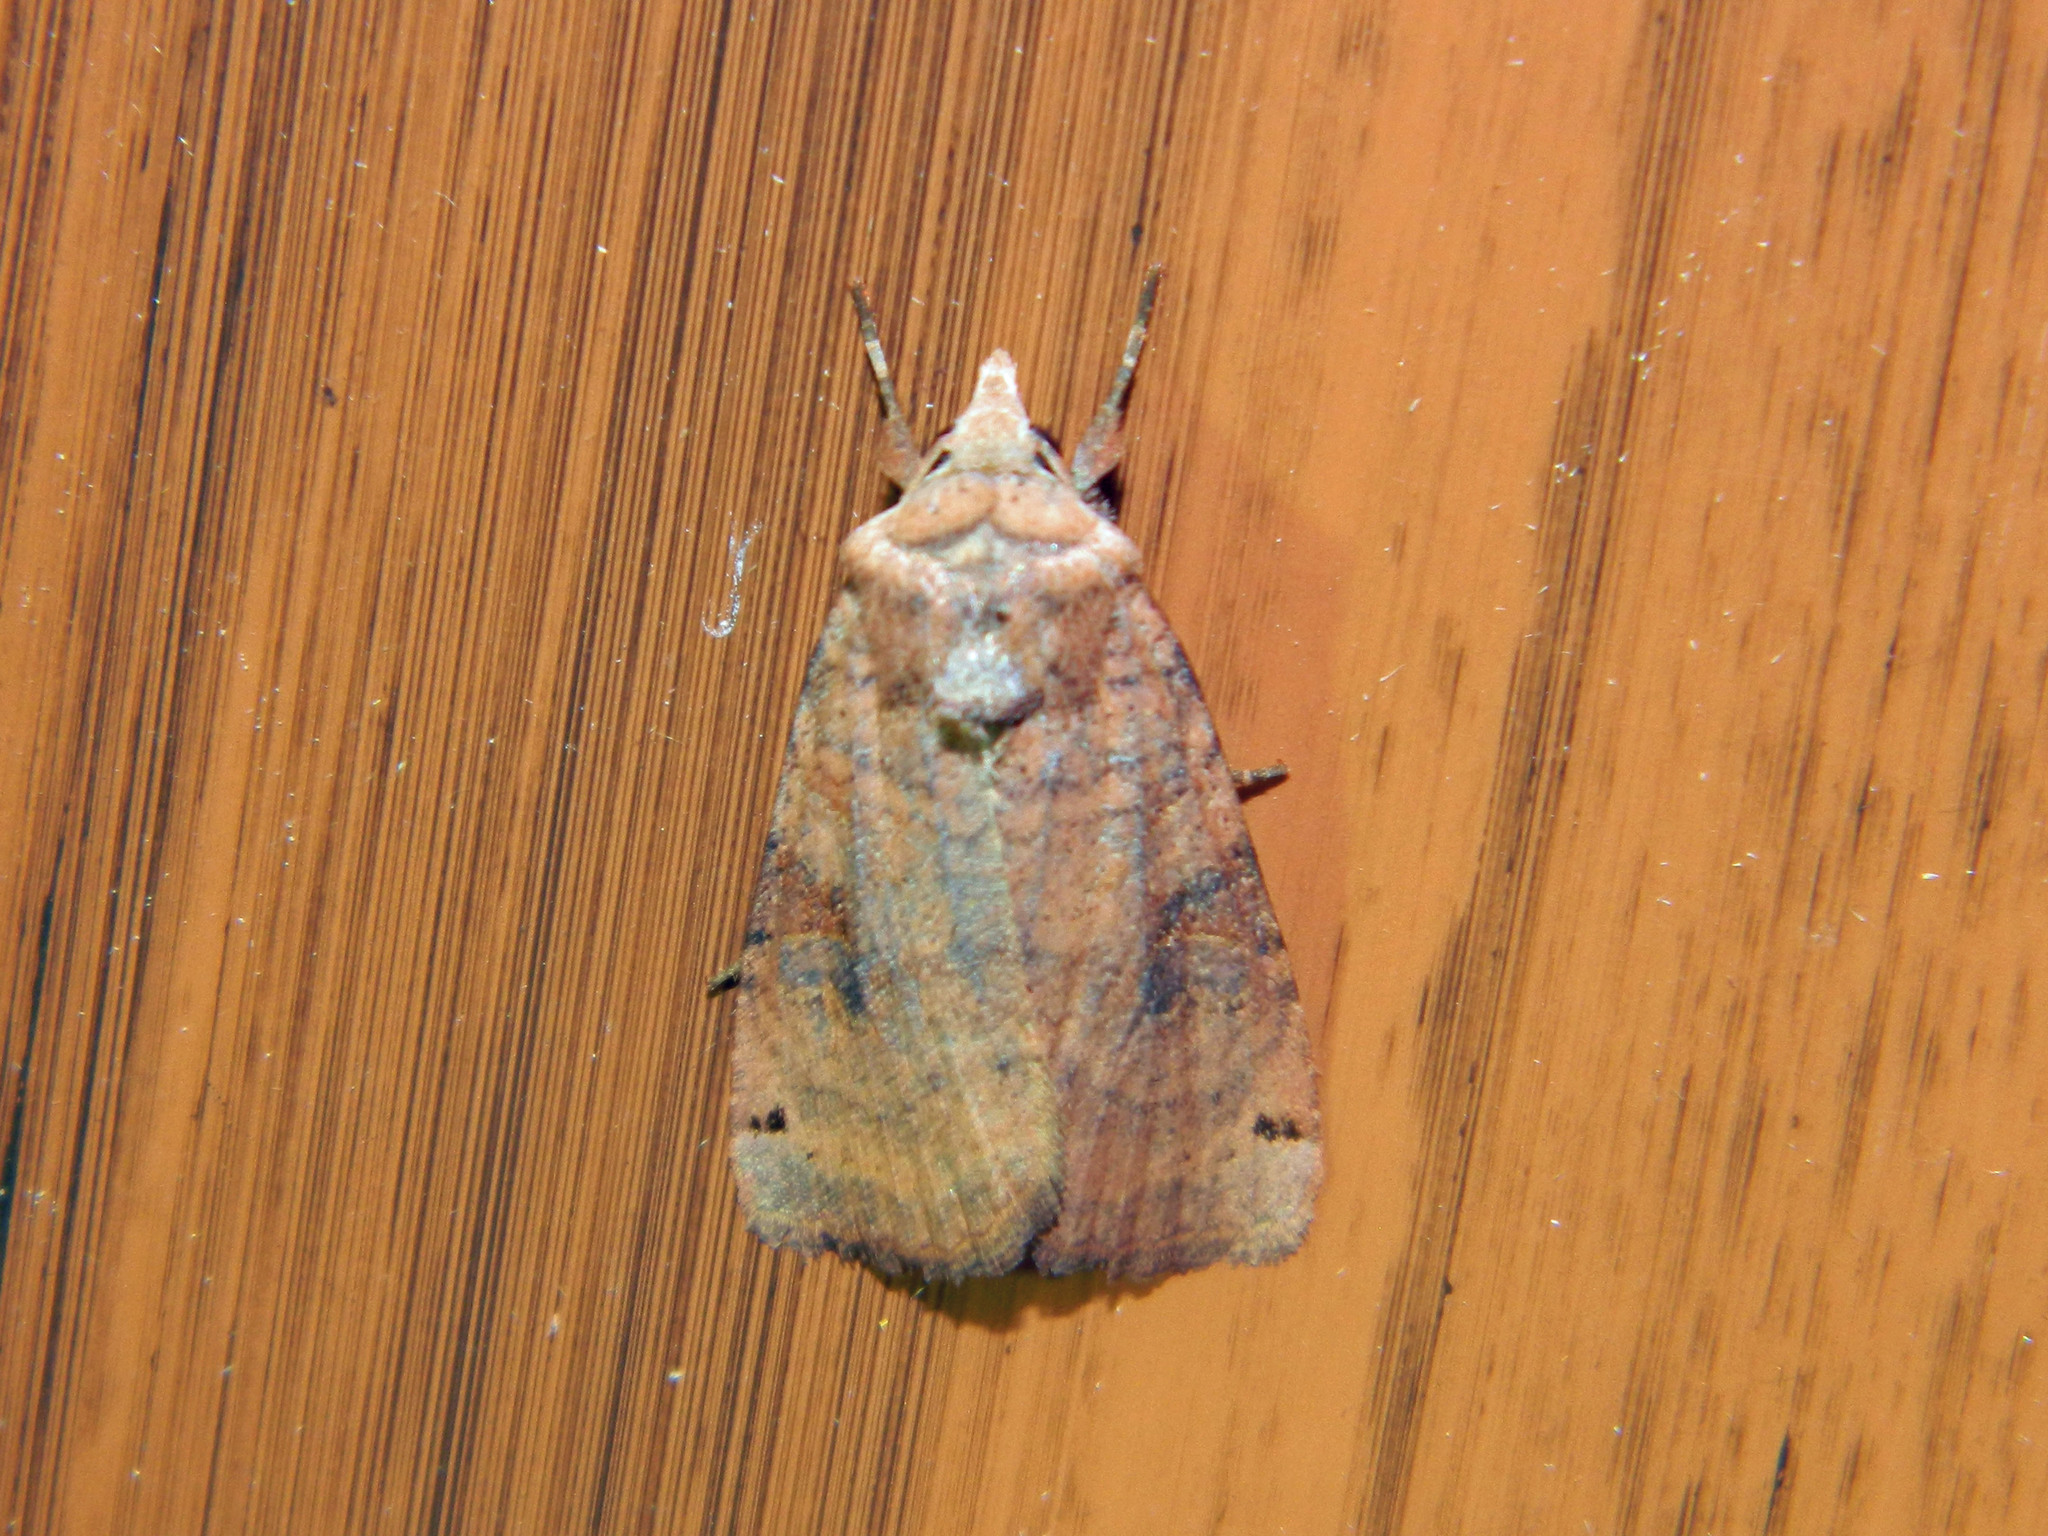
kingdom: Animalia
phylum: Arthropoda
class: Insecta
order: Lepidoptera
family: Noctuidae
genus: Xestia
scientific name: Xestia smithii
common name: Smith's dart
